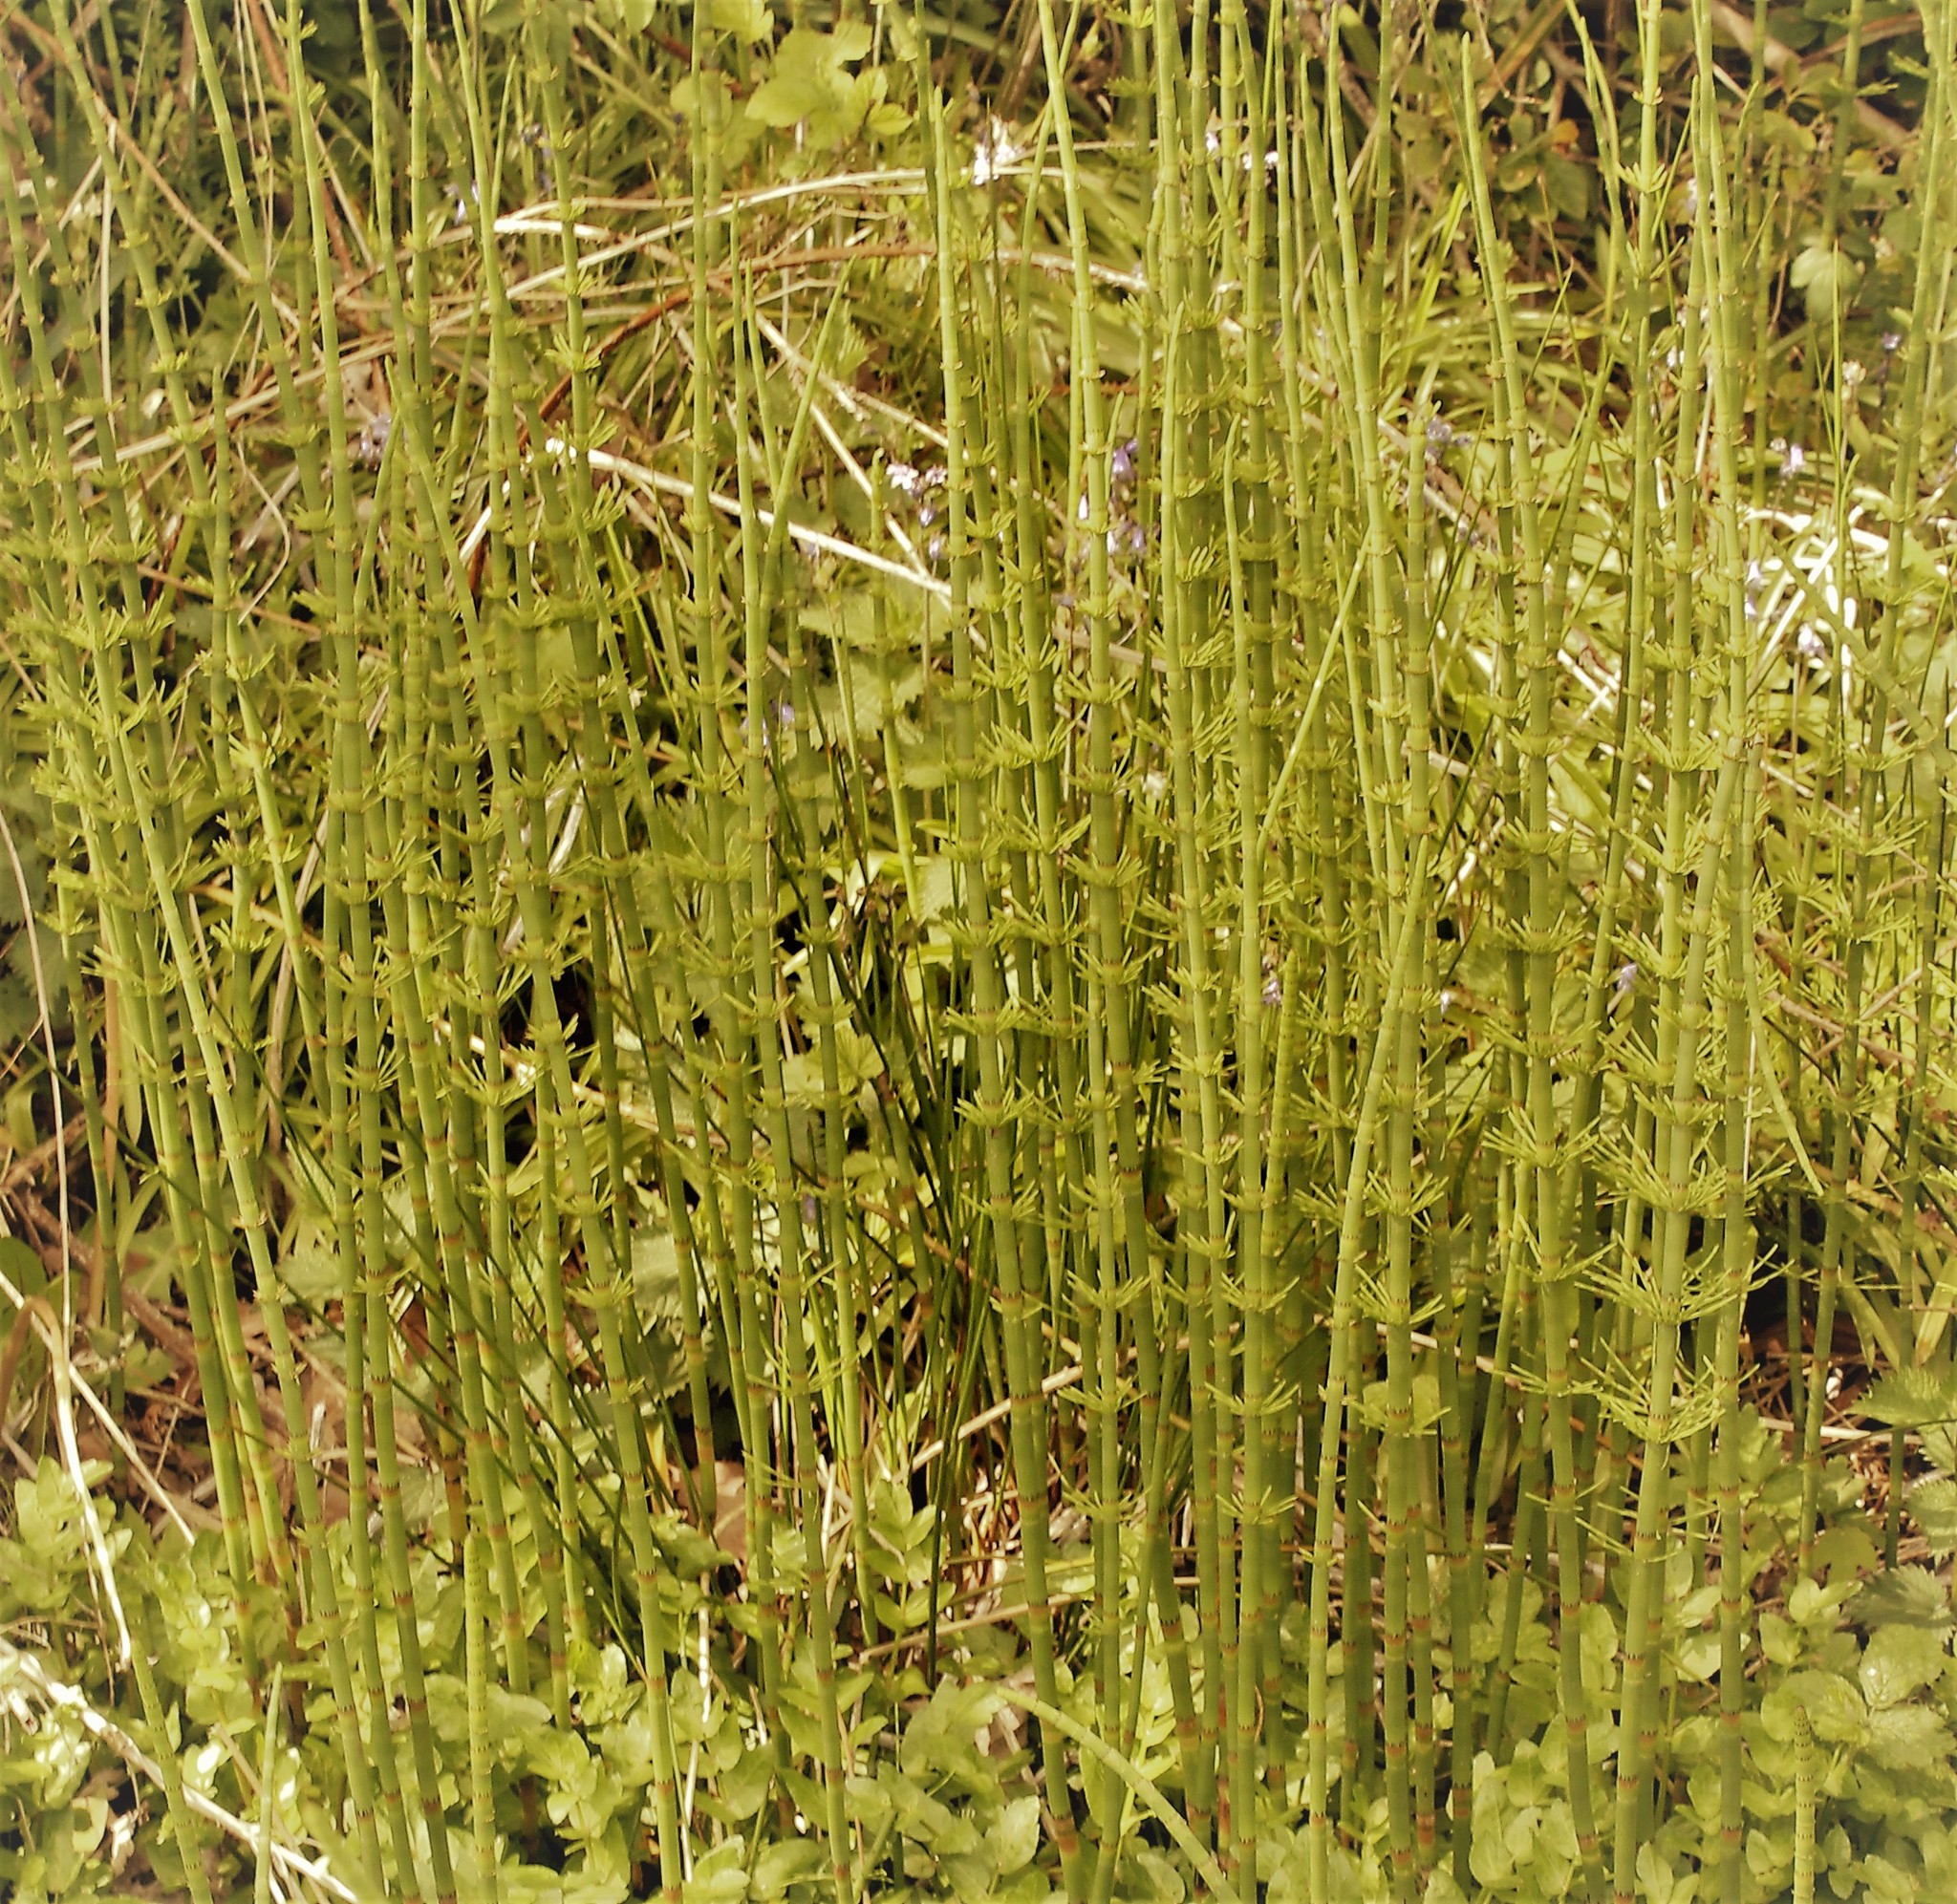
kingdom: Plantae
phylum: Tracheophyta
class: Polypodiopsida
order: Equisetales
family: Equisetaceae
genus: Equisetum
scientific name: Equisetum fluviatile
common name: Water horsetail
